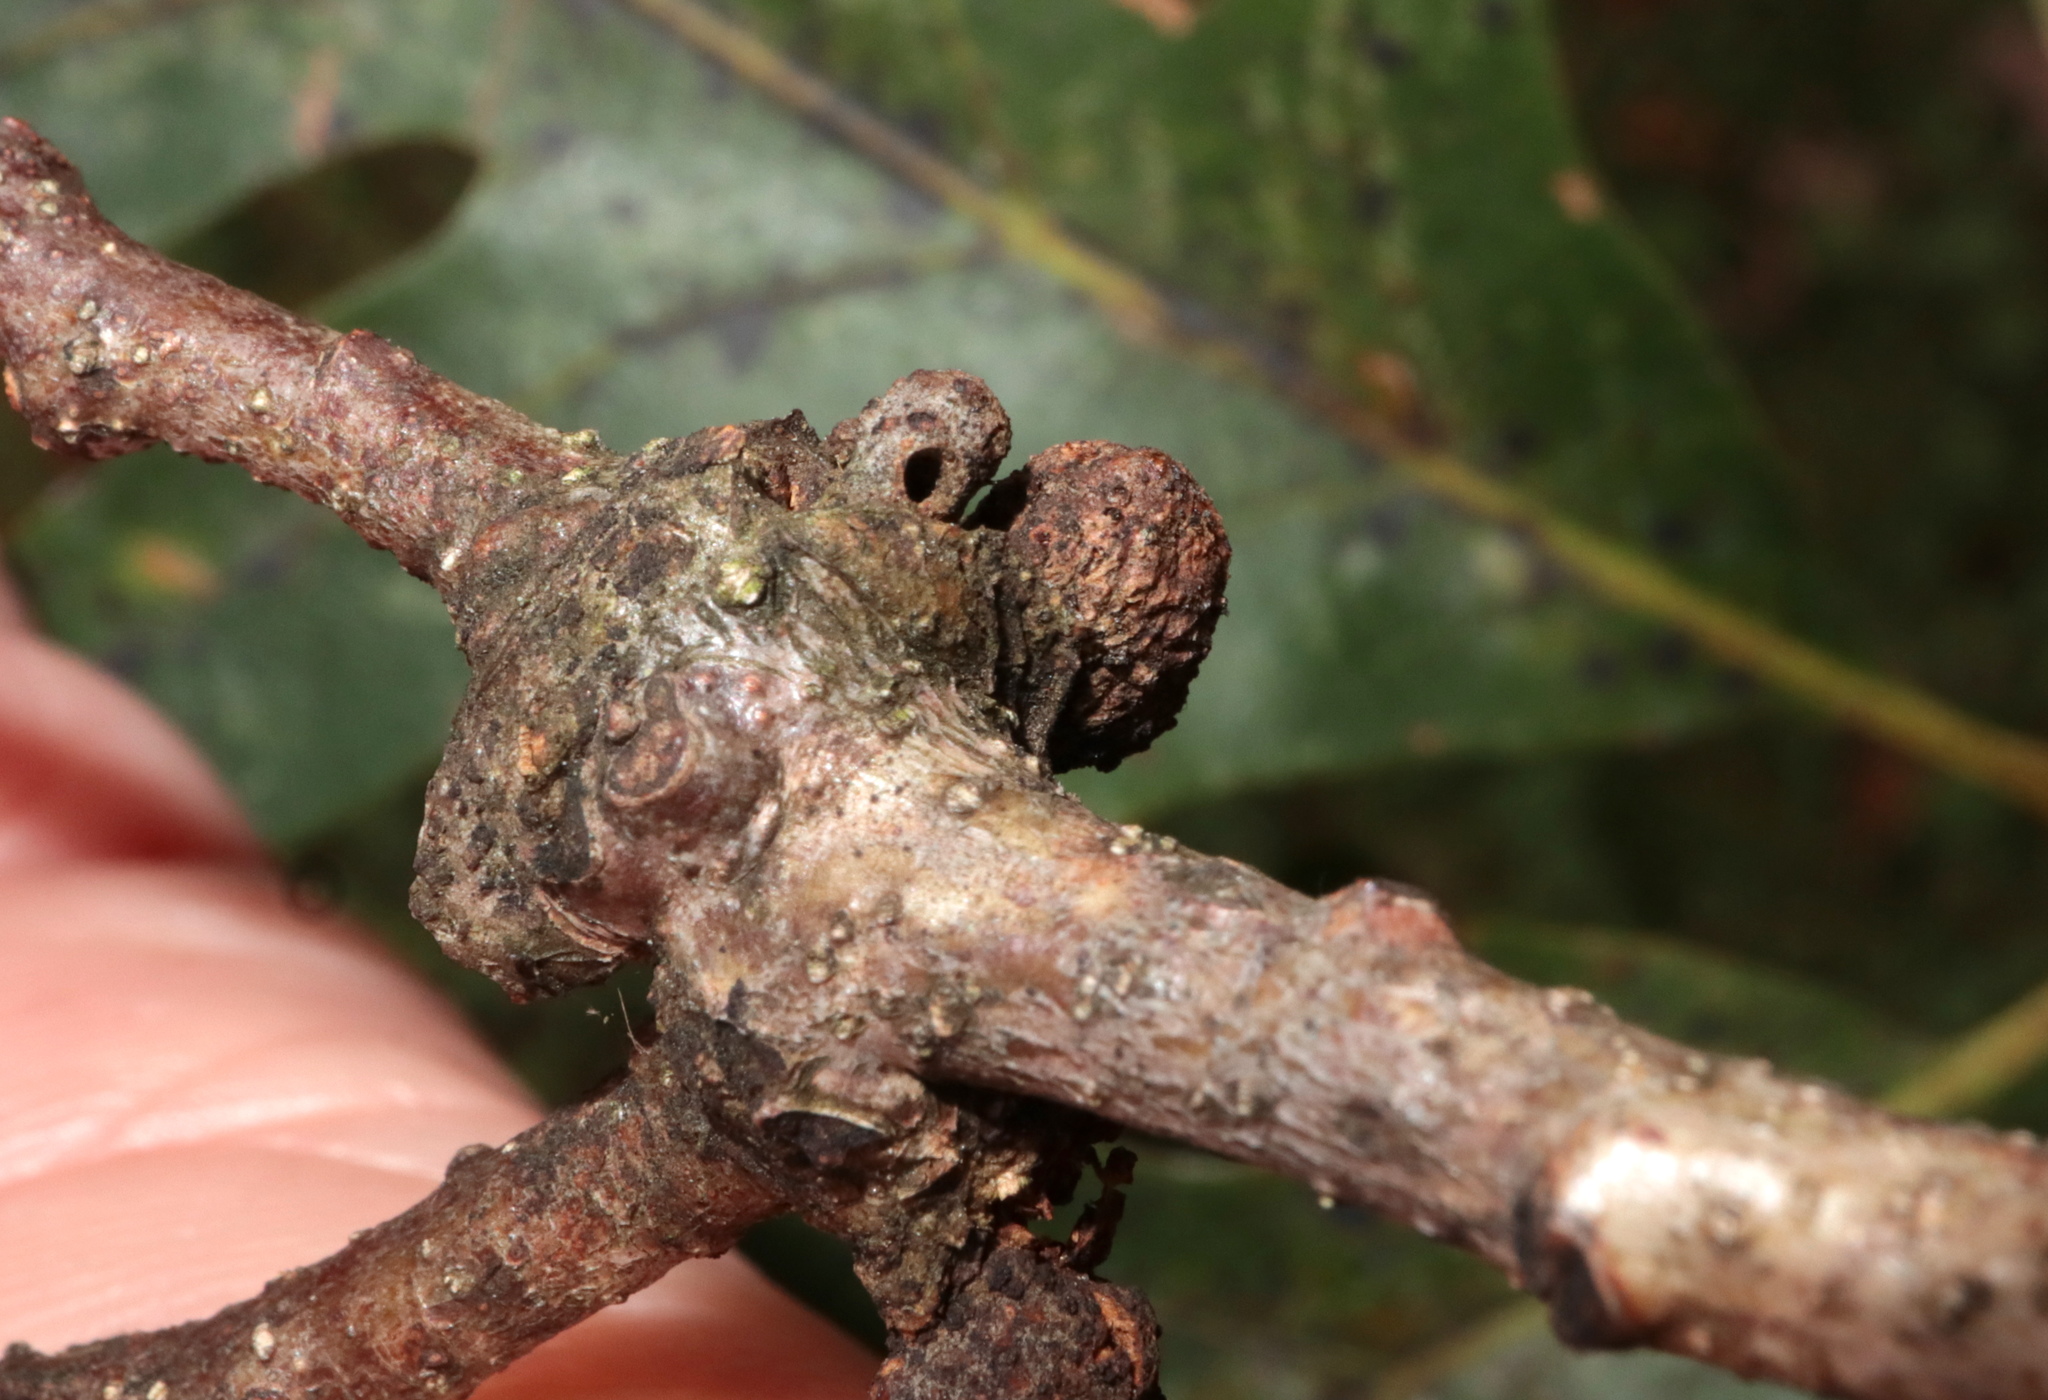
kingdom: Animalia
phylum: Arthropoda
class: Insecta
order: Hymenoptera
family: Cynipidae
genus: Andricus
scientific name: Andricus
